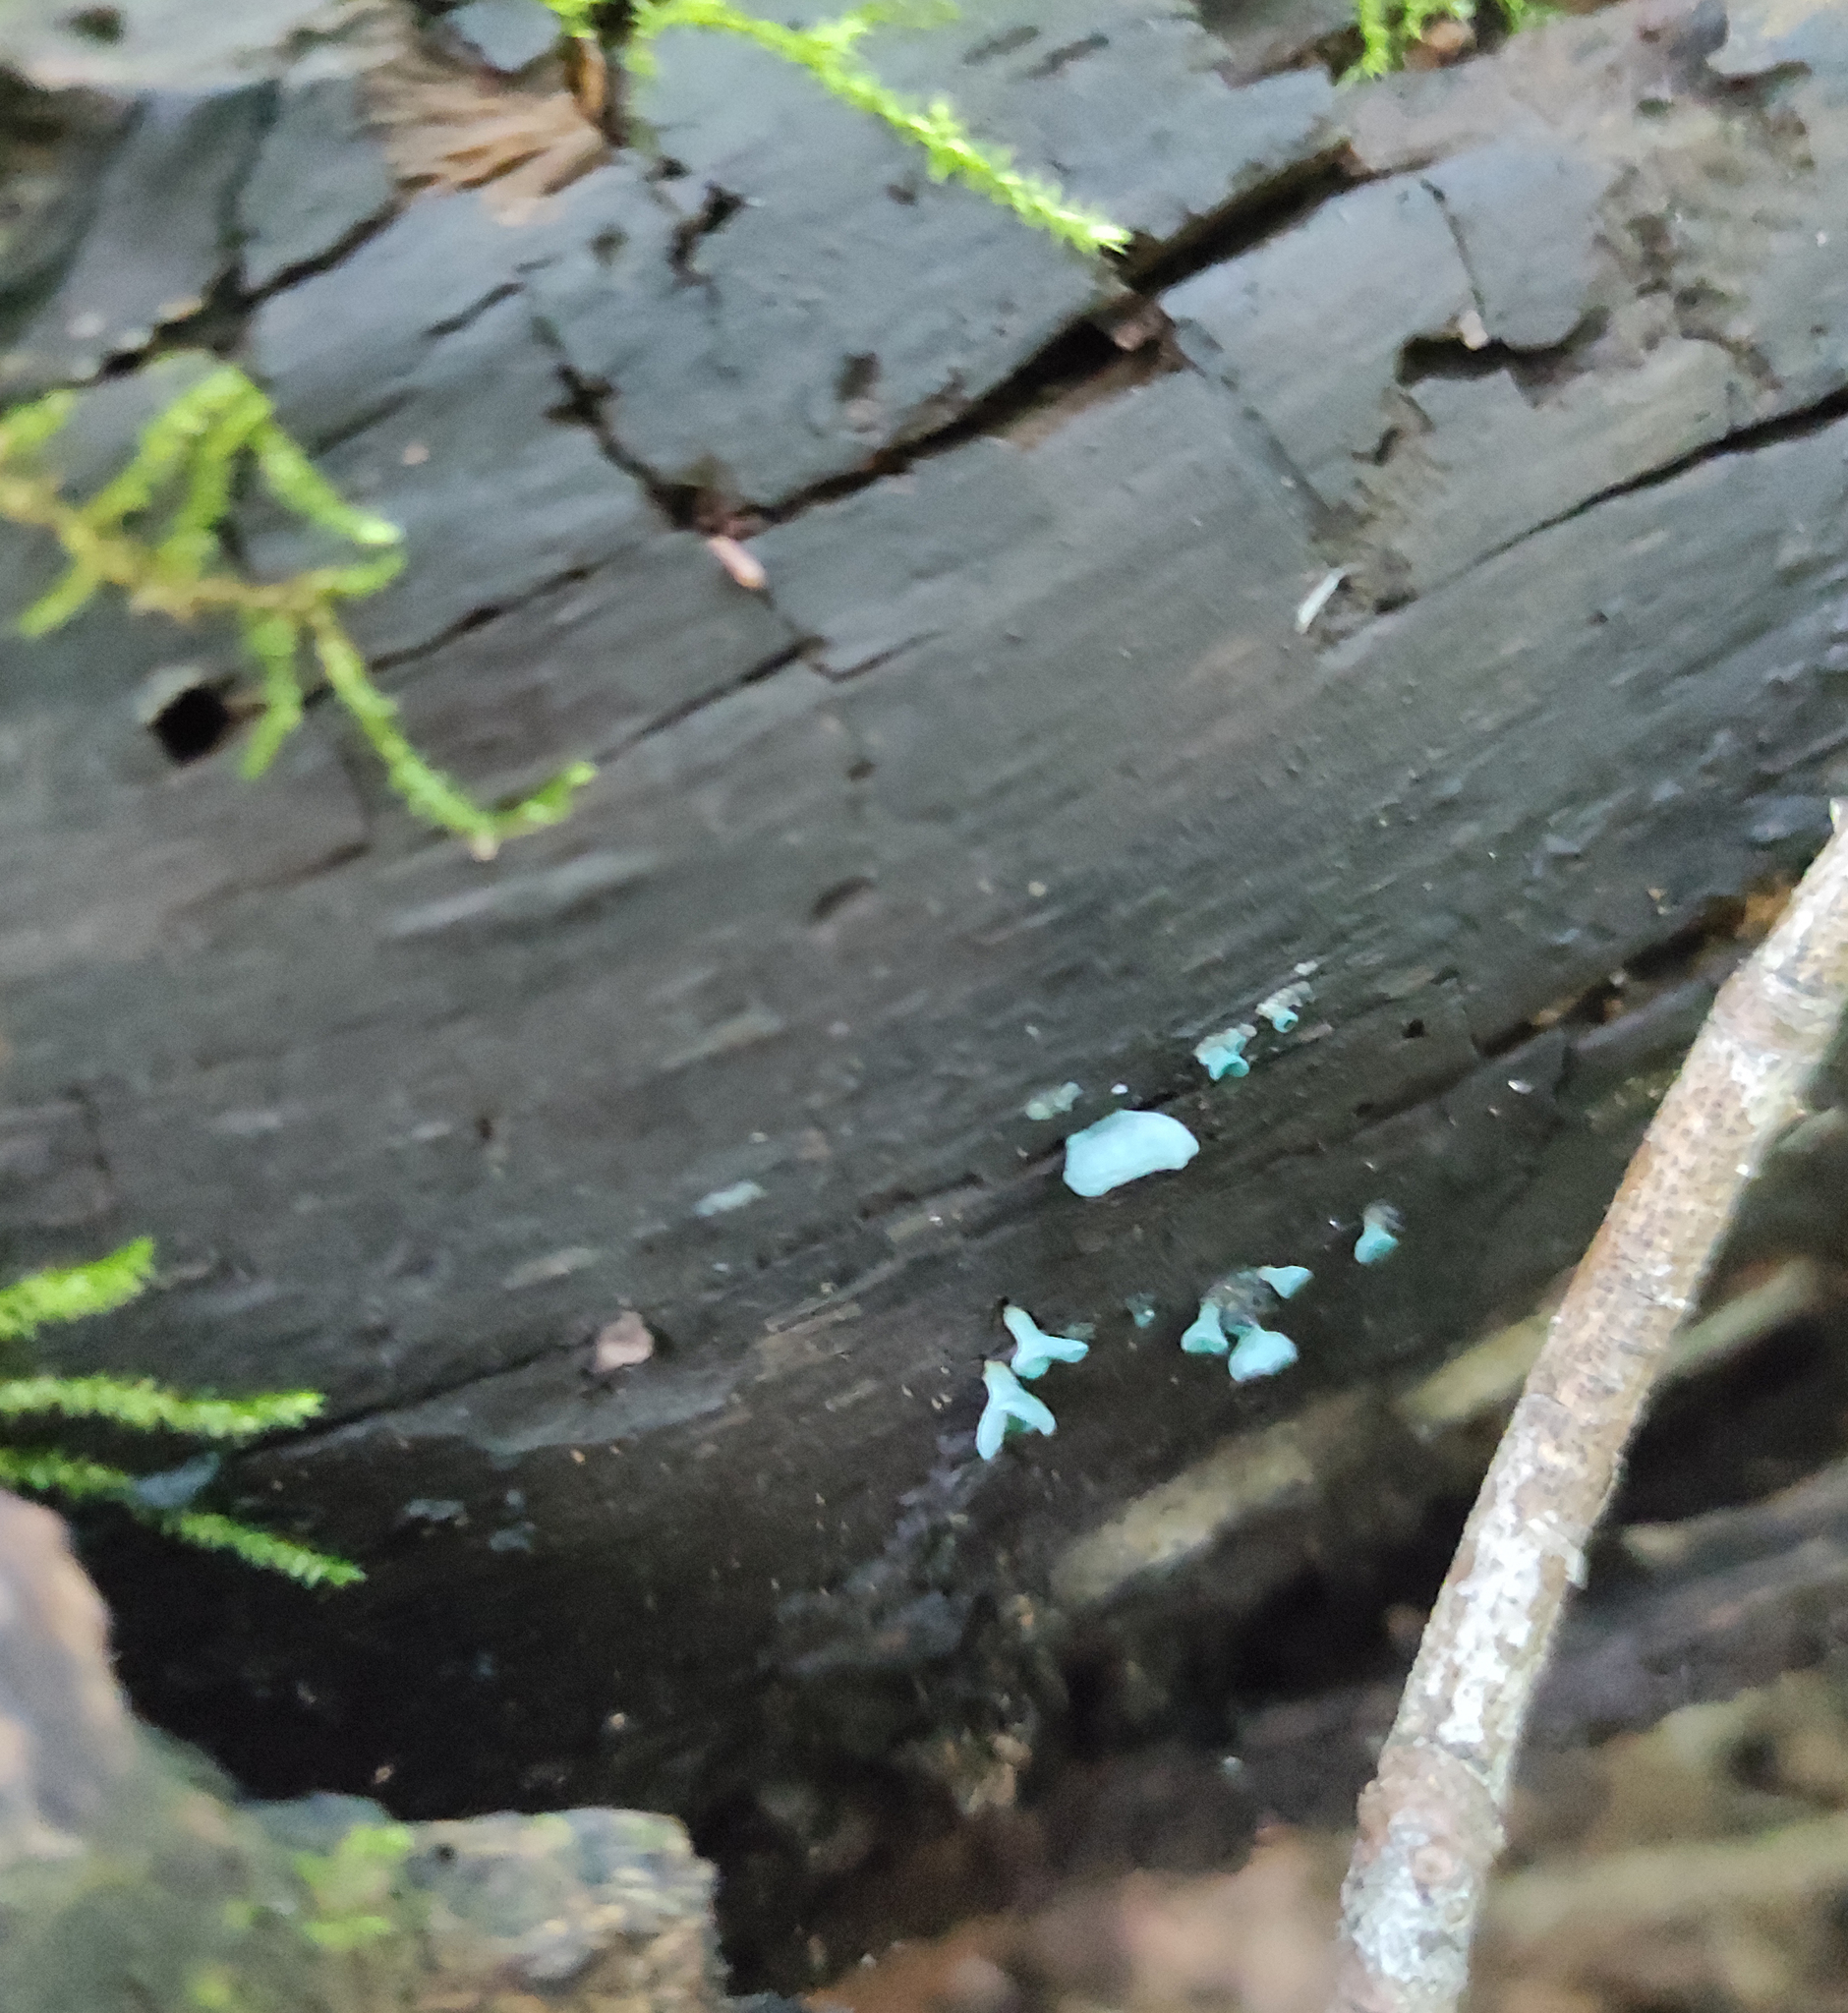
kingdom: Fungi
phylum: Ascomycota
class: Leotiomycetes
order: Helotiales
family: Chlorociboriaceae
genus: Chlorociboria
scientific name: Chlorociboria aeruginascens
